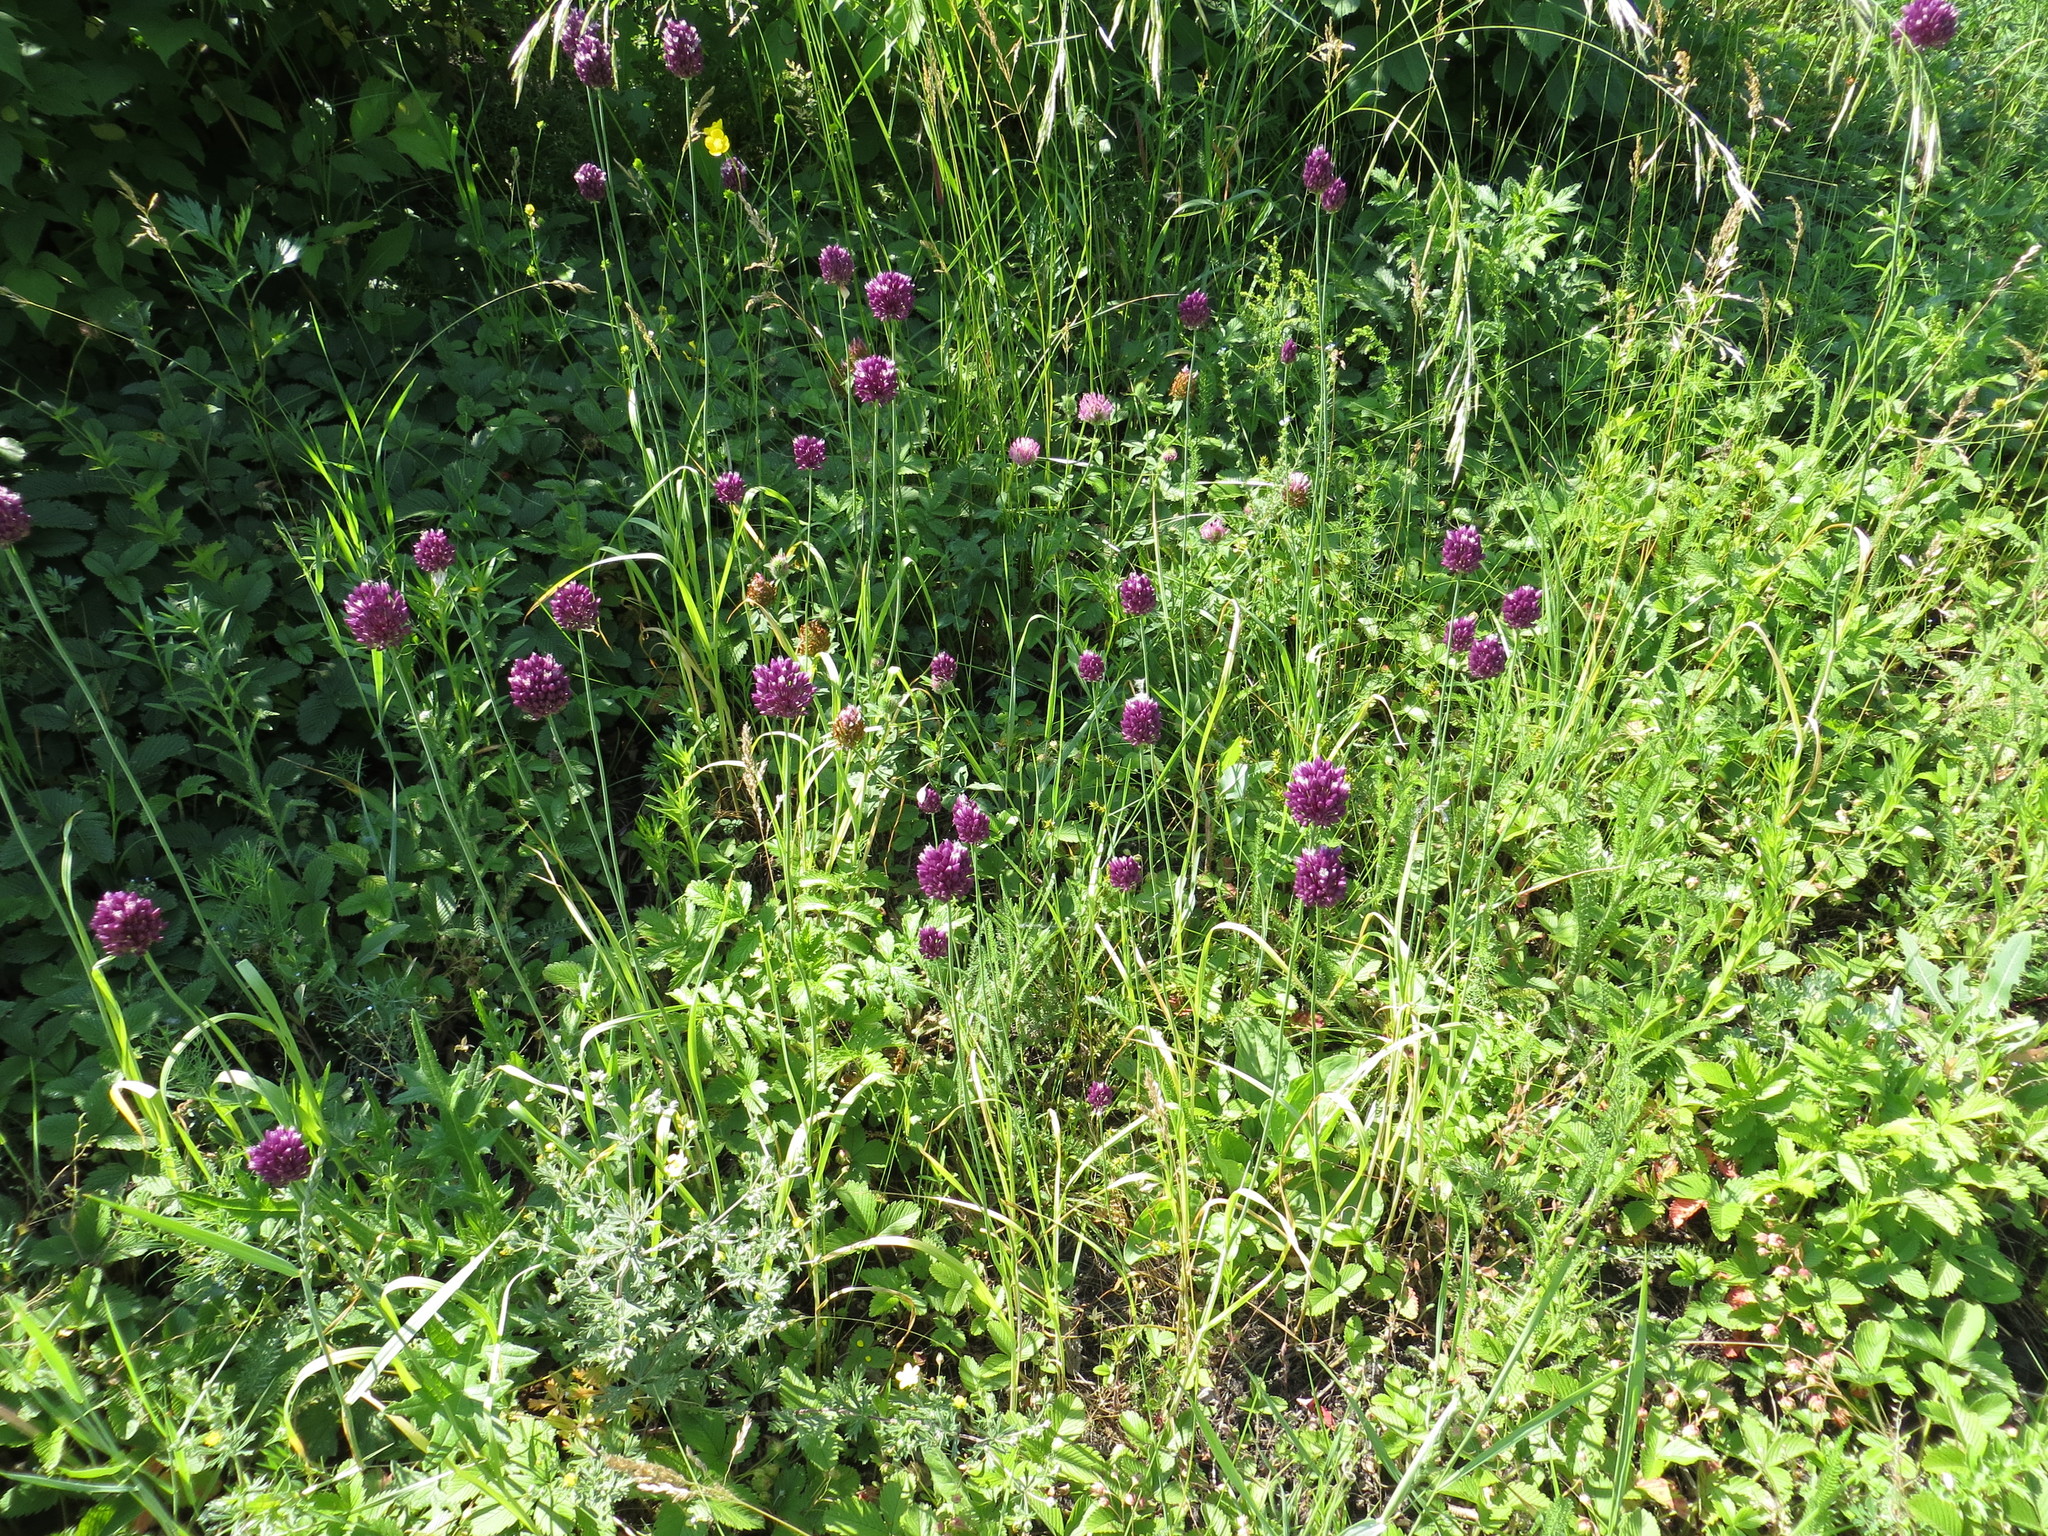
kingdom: Plantae
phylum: Tracheophyta
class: Liliopsida
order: Asparagales
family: Amaryllidaceae
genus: Allium
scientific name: Allium rotundum
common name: Sand leek
